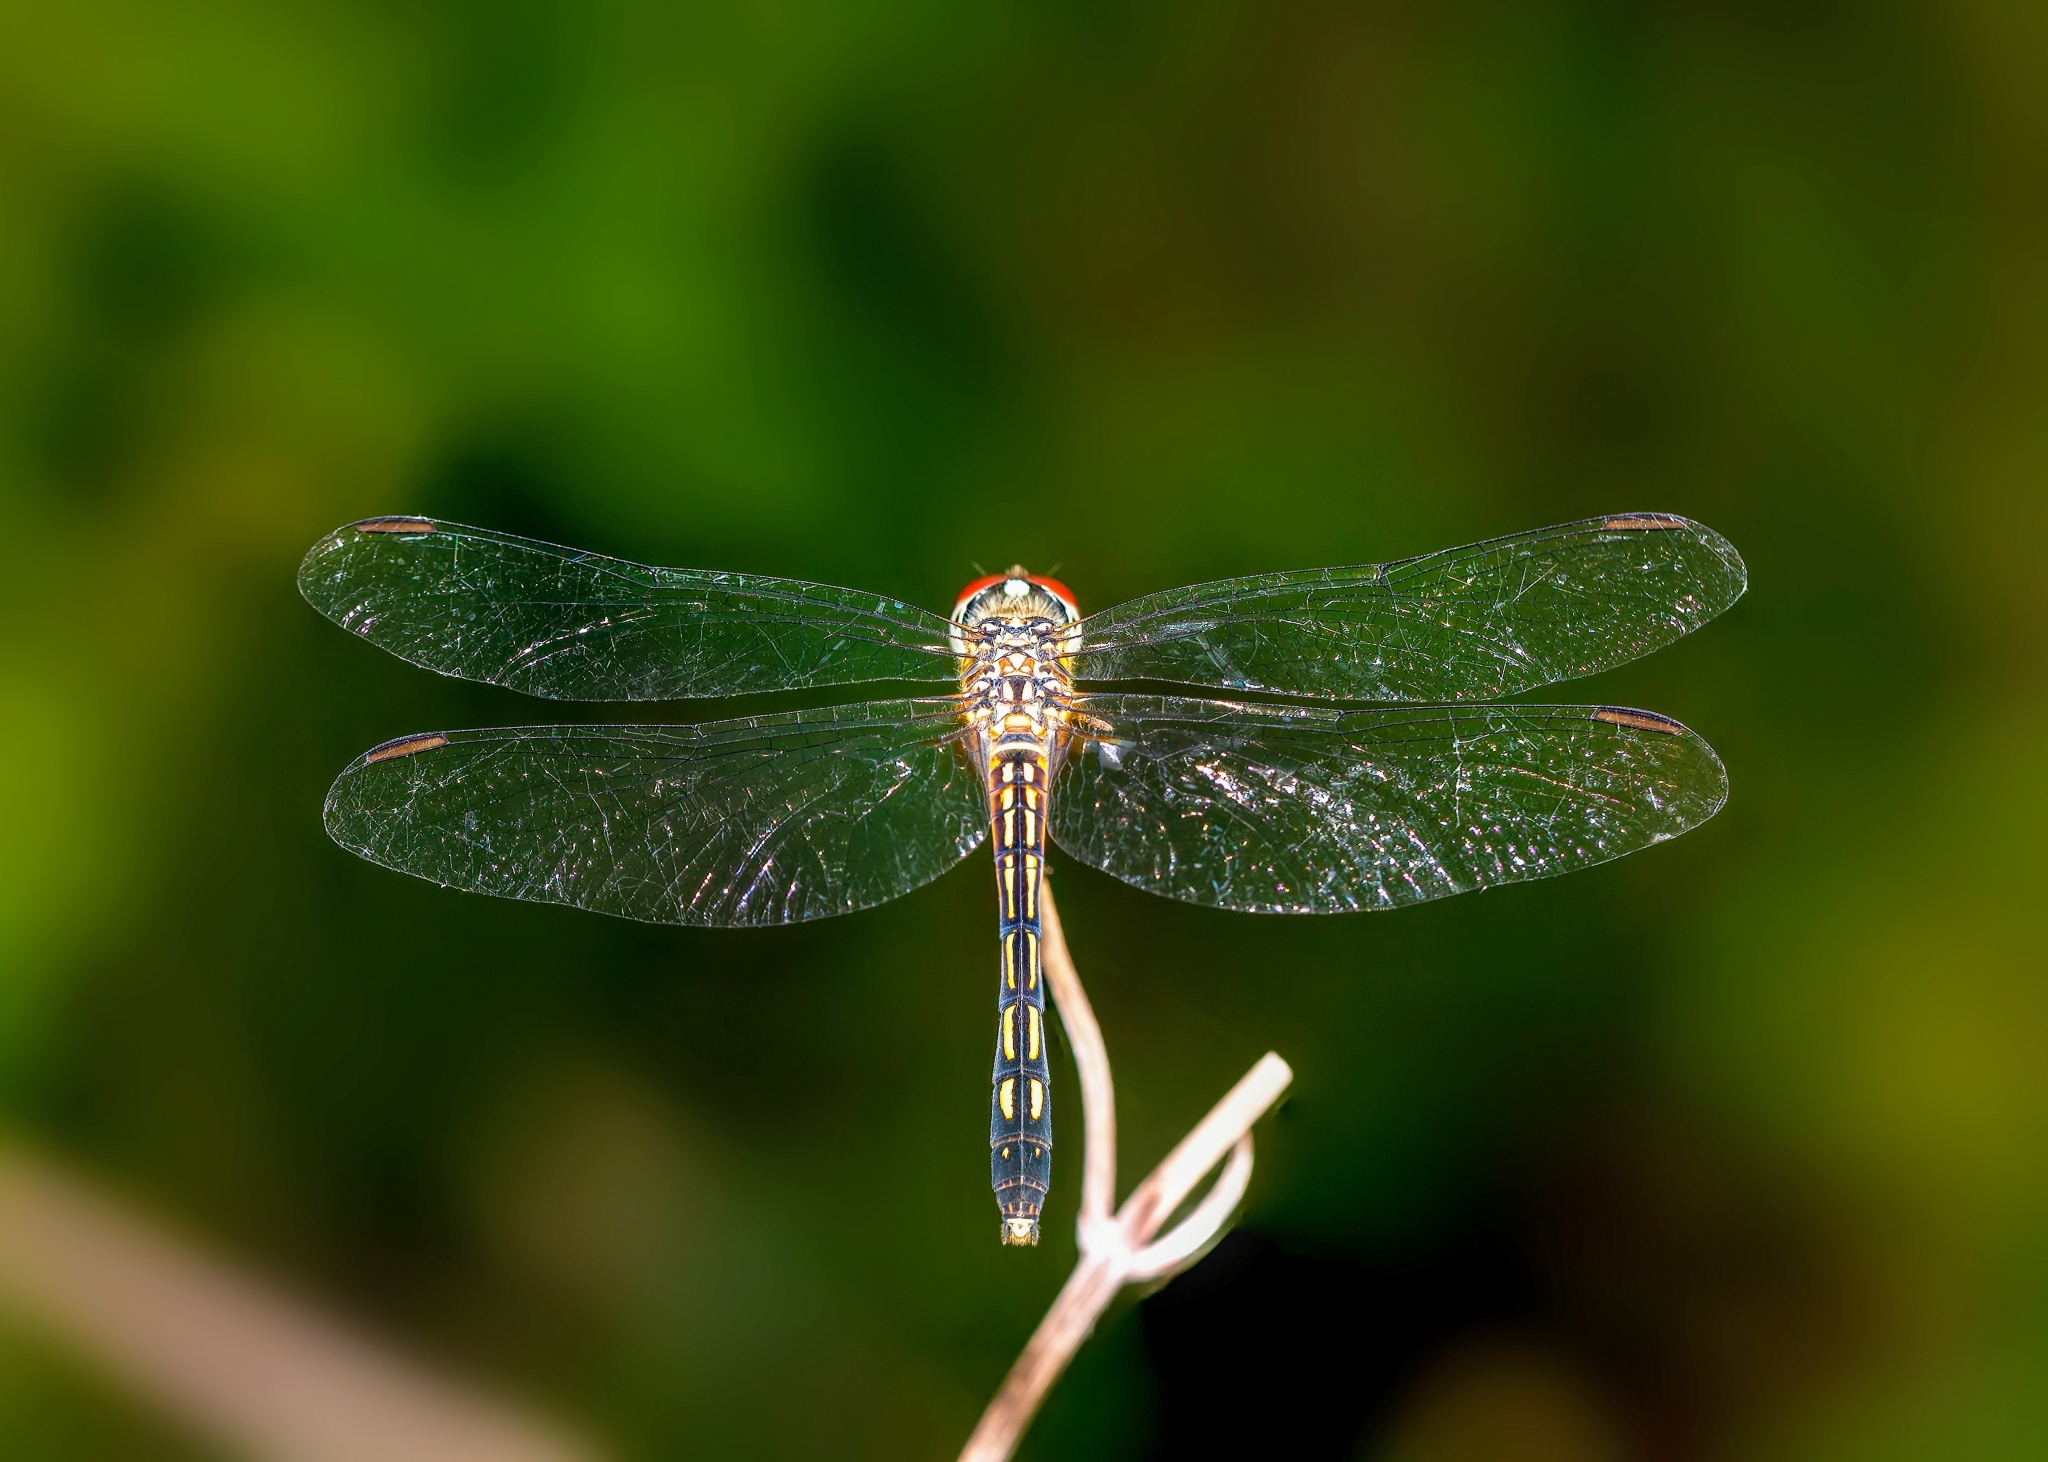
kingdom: Animalia
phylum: Arthropoda
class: Insecta
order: Odonata
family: Libellulidae
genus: Pachydiplax
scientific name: Pachydiplax longipennis
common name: Blue dasher
